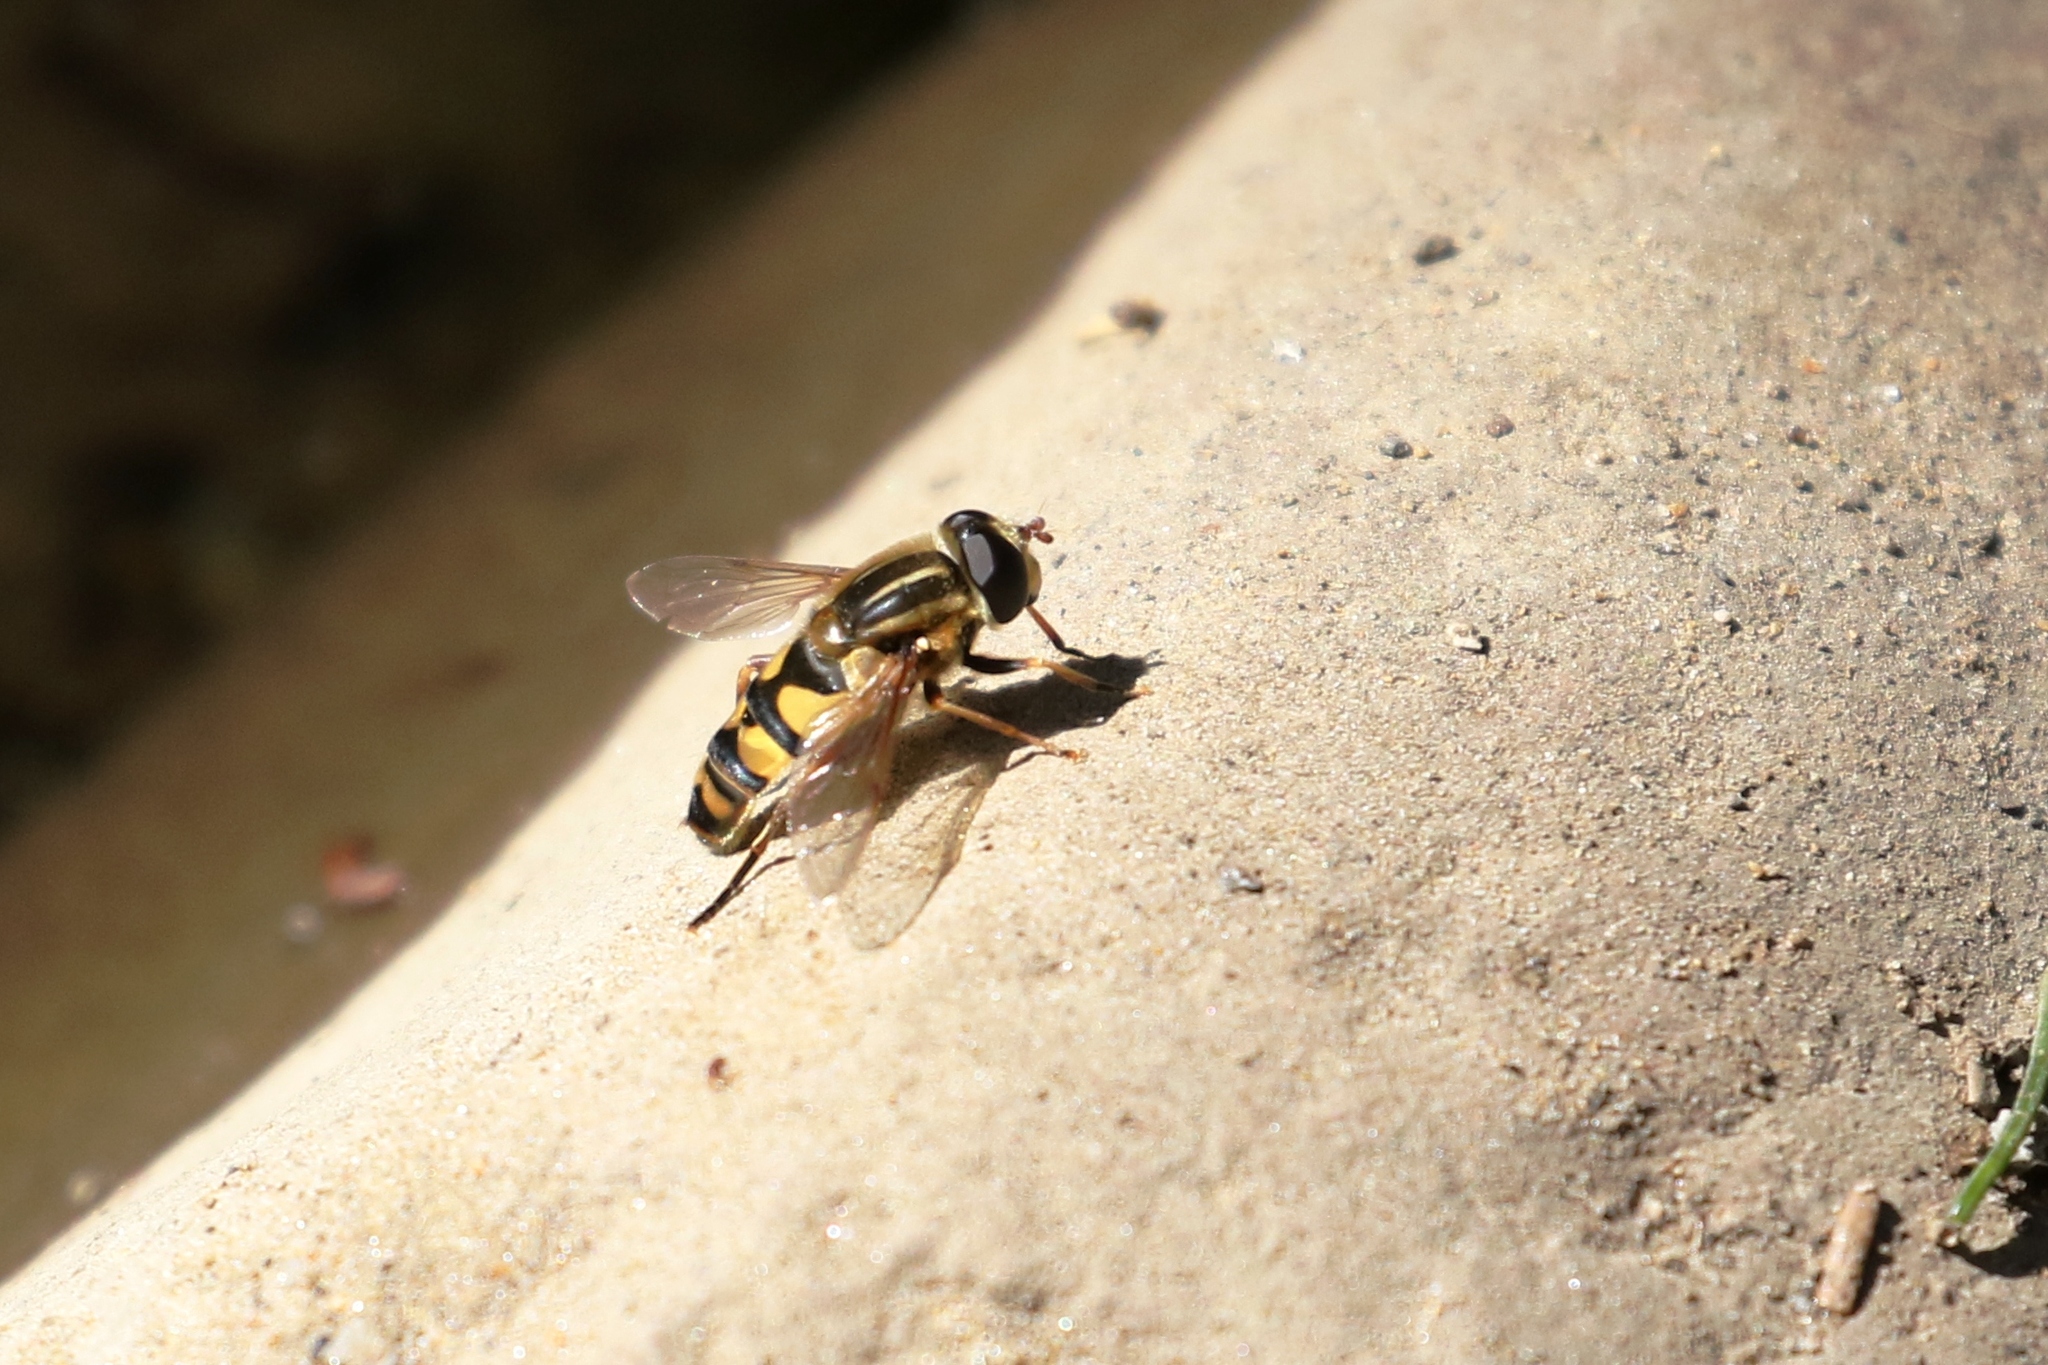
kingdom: Animalia
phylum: Arthropoda
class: Insecta
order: Diptera
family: Syrphidae
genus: Helophilus
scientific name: Helophilus fasciatus
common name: Narrow-headed marsh fly
